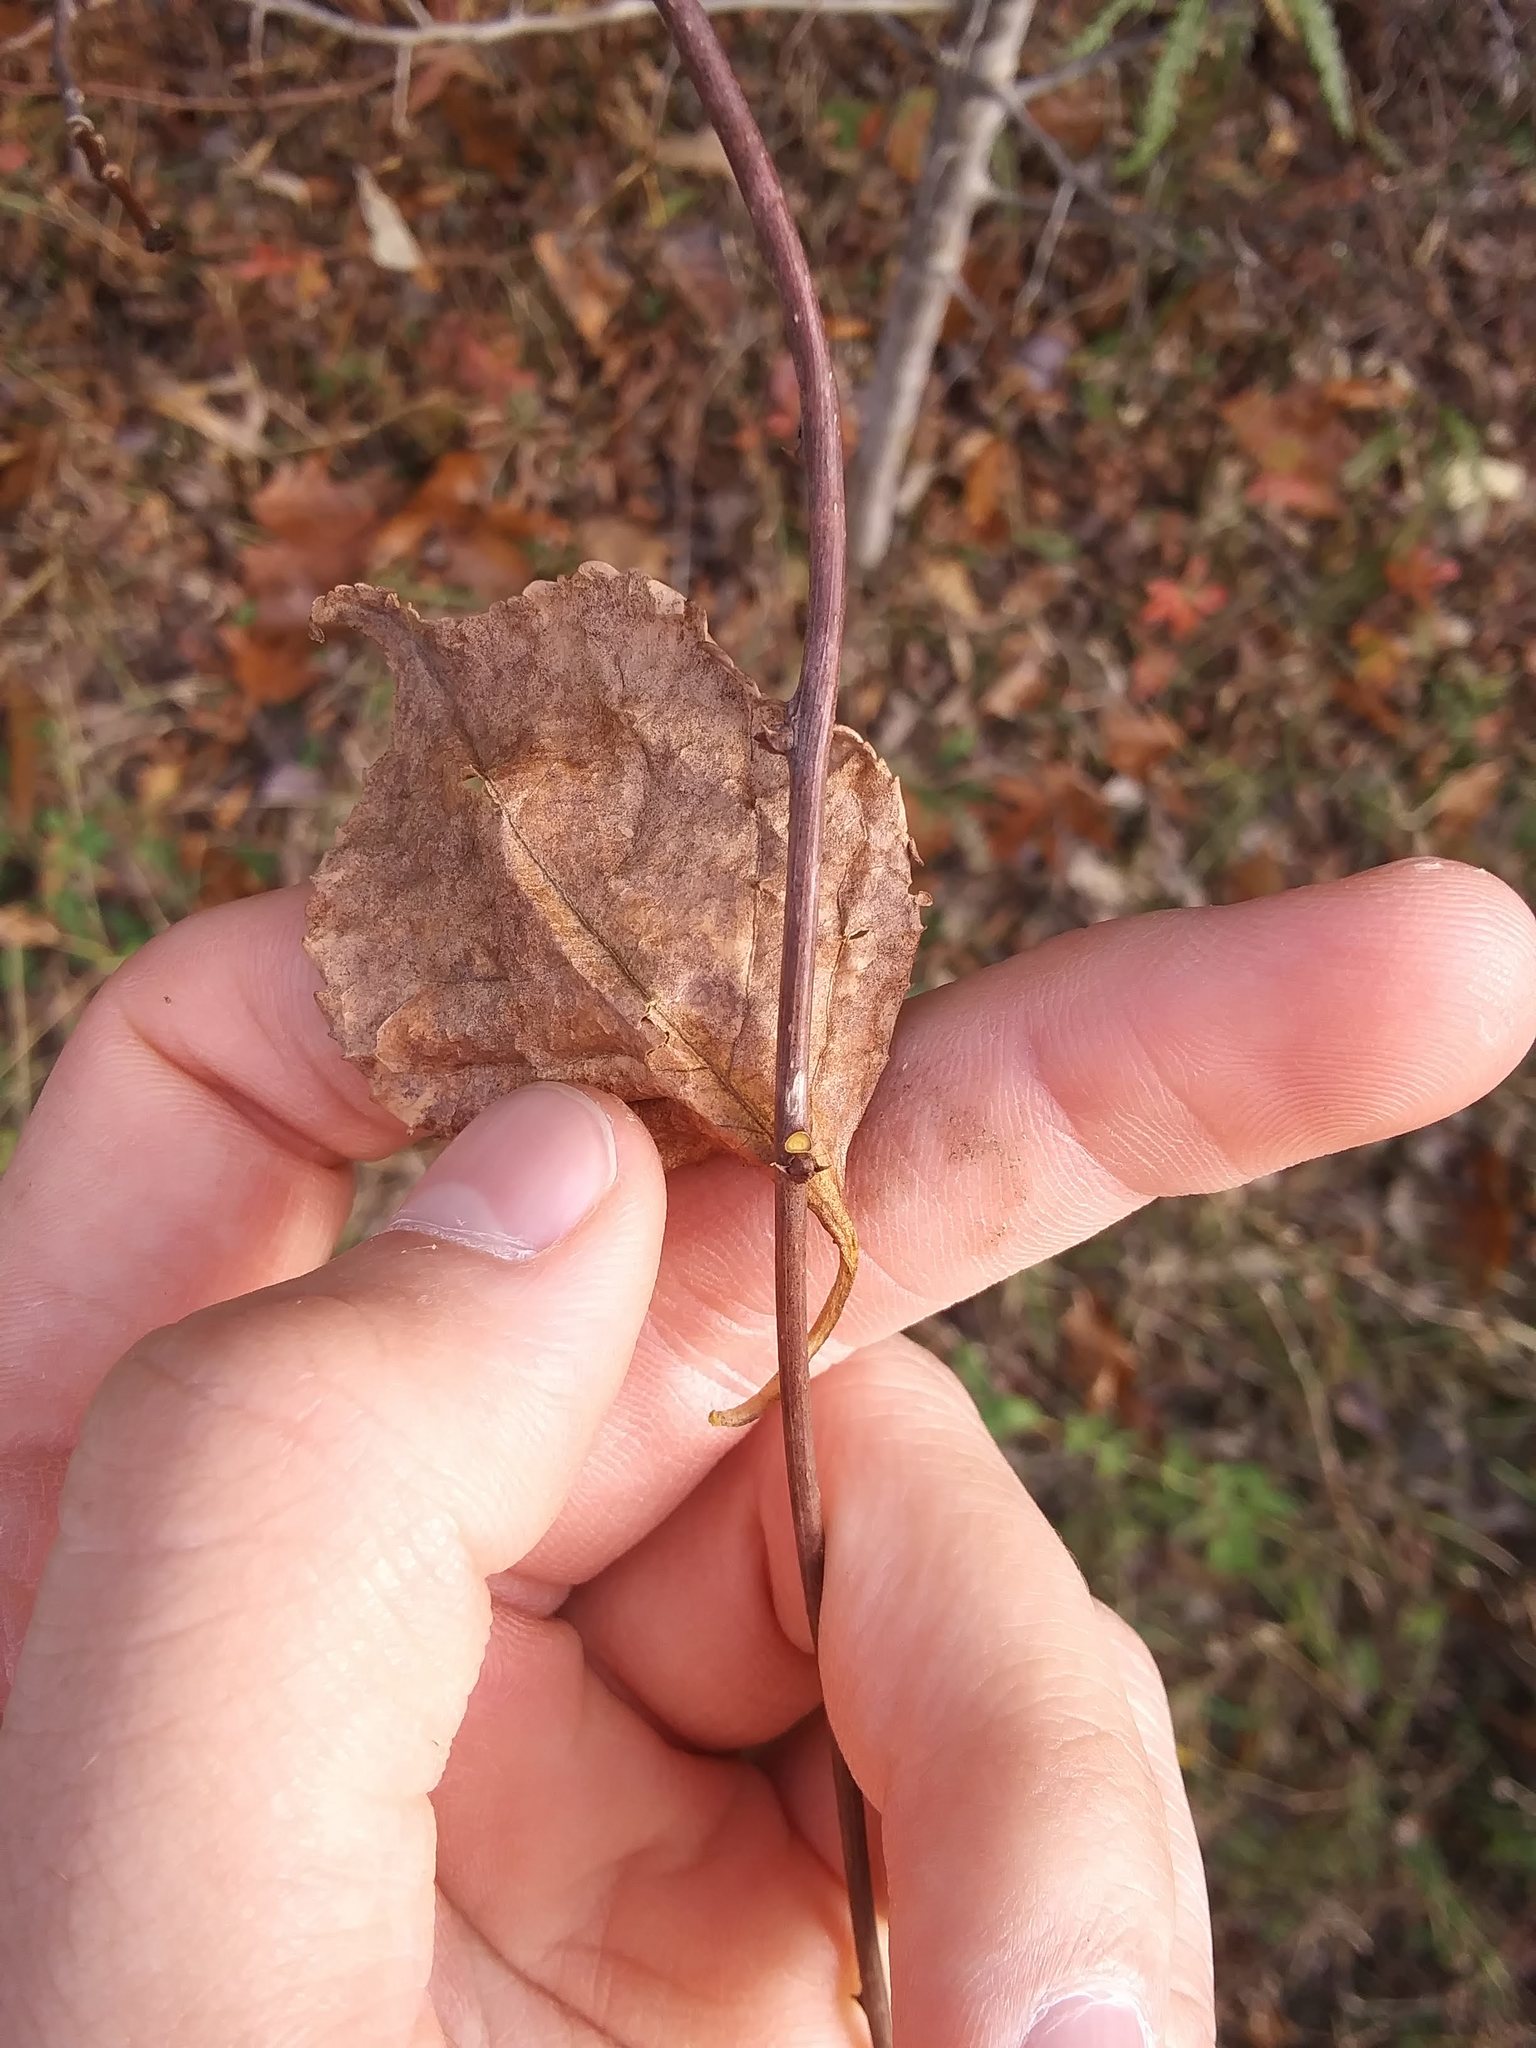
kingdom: Plantae
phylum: Tracheophyta
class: Magnoliopsida
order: Celastrales
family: Celastraceae
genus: Celastrus
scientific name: Celastrus orbiculatus
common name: Oriental bittersweet
